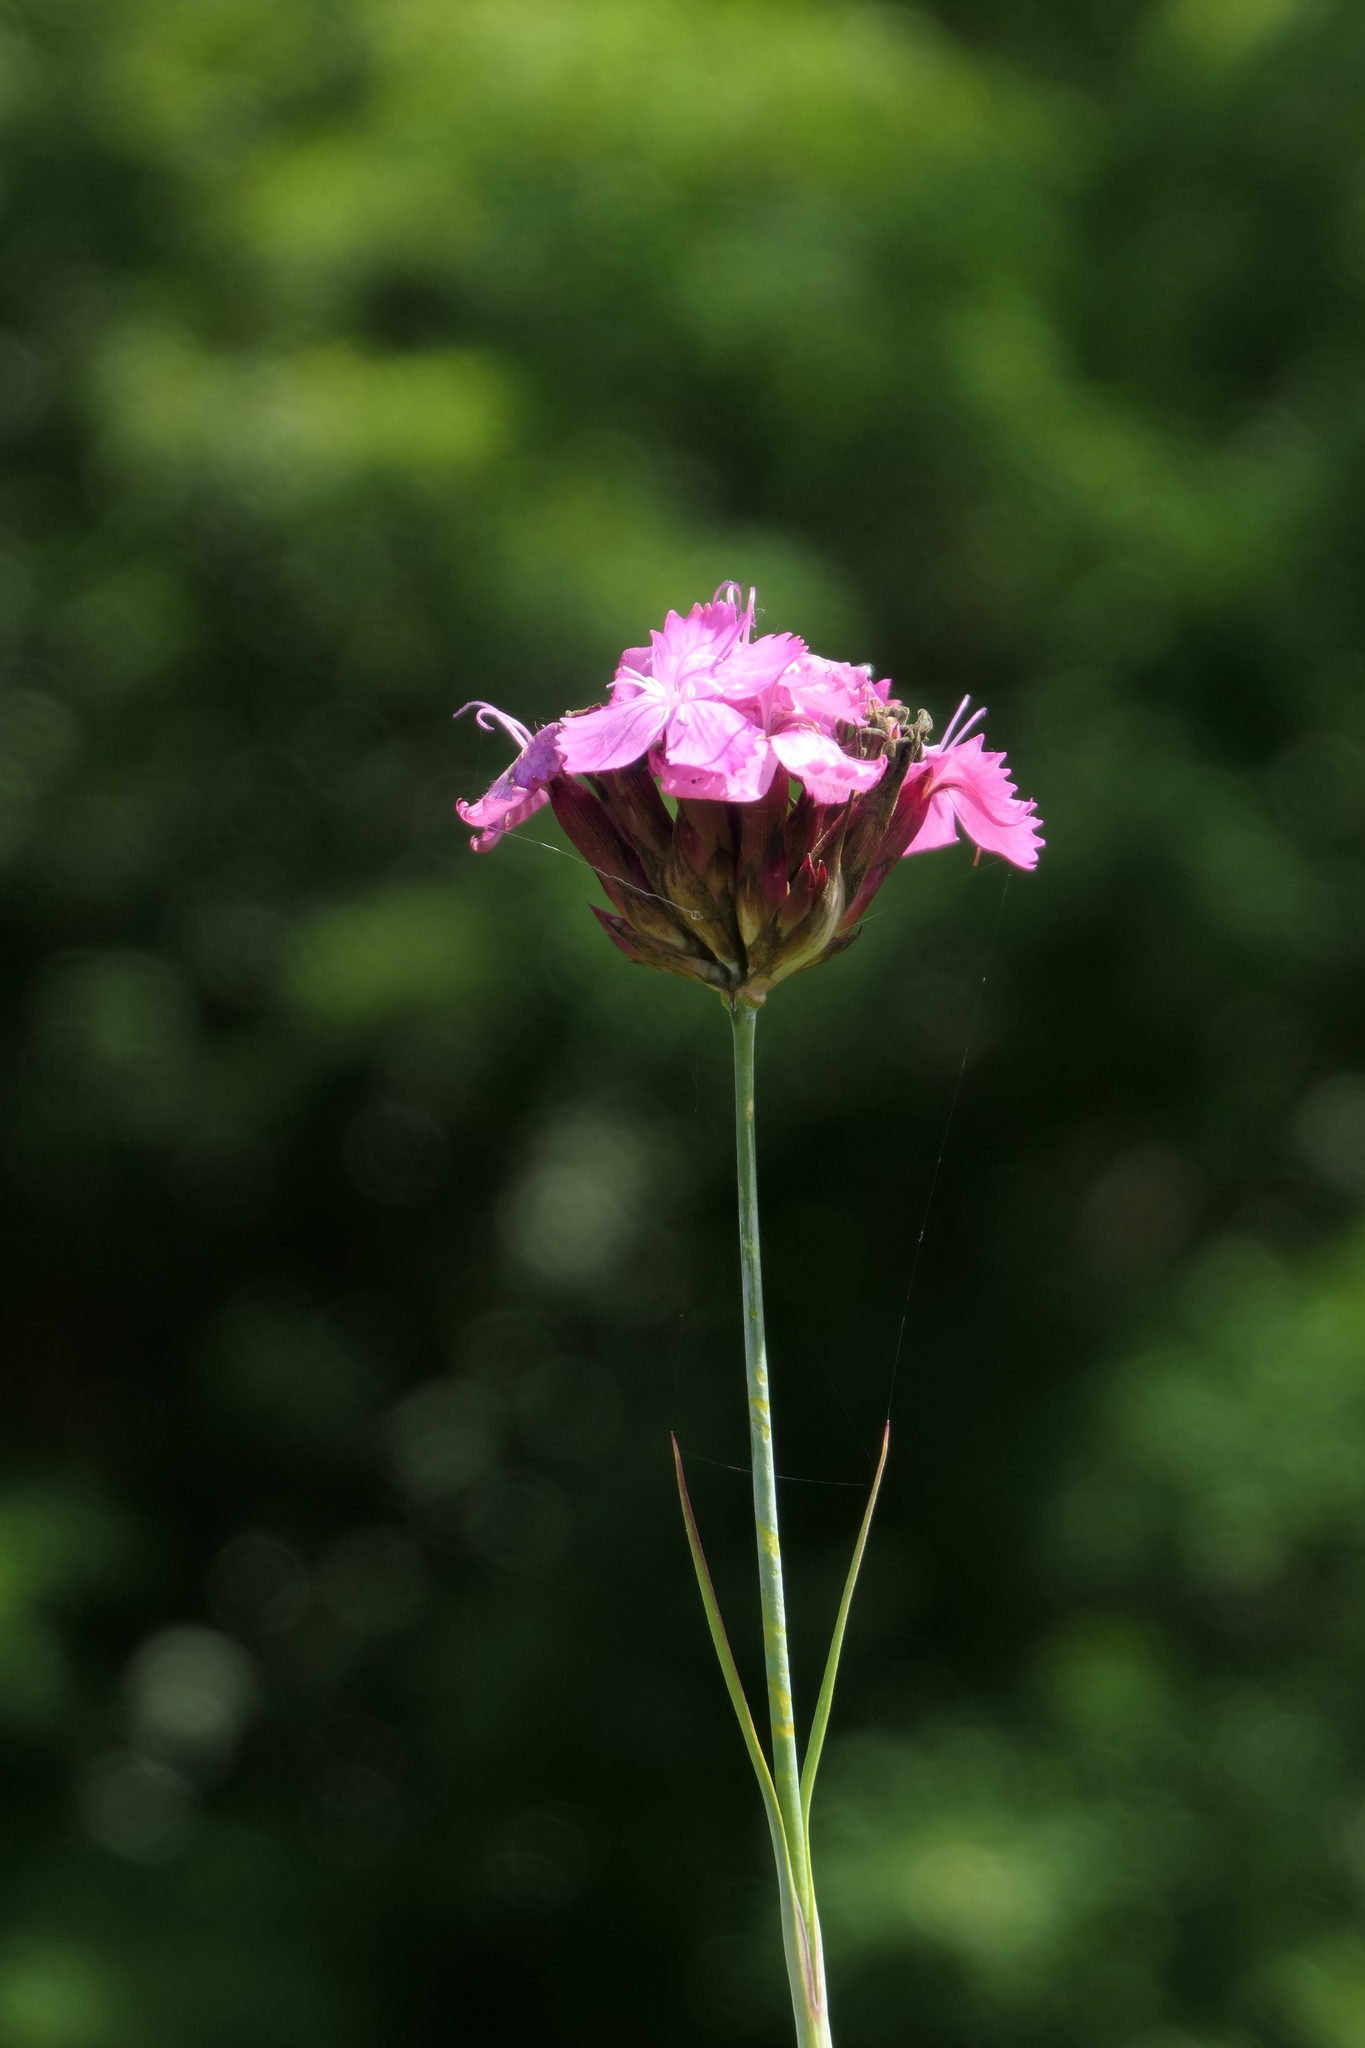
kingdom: Plantae
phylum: Tracheophyta
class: Magnoliopsida
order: Caryophyllales
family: Caryophyllaceae
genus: Dianthus
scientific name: Dianthus carthusianorum
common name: Carthusian pink
